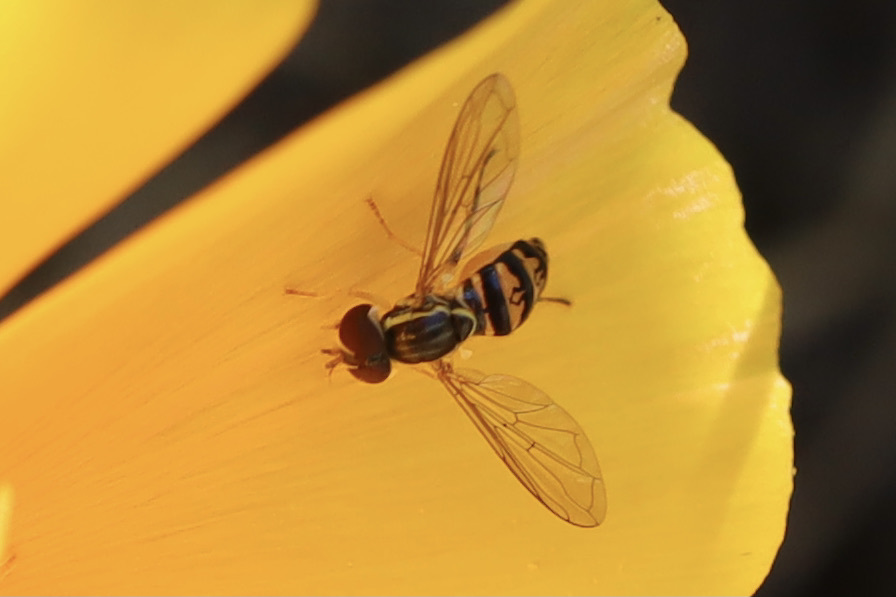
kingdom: Animalia
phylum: Arthropoda
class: Insecta
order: Diptera
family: Syrphidae
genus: Toxomerus
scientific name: Toxomerus occidentalis
